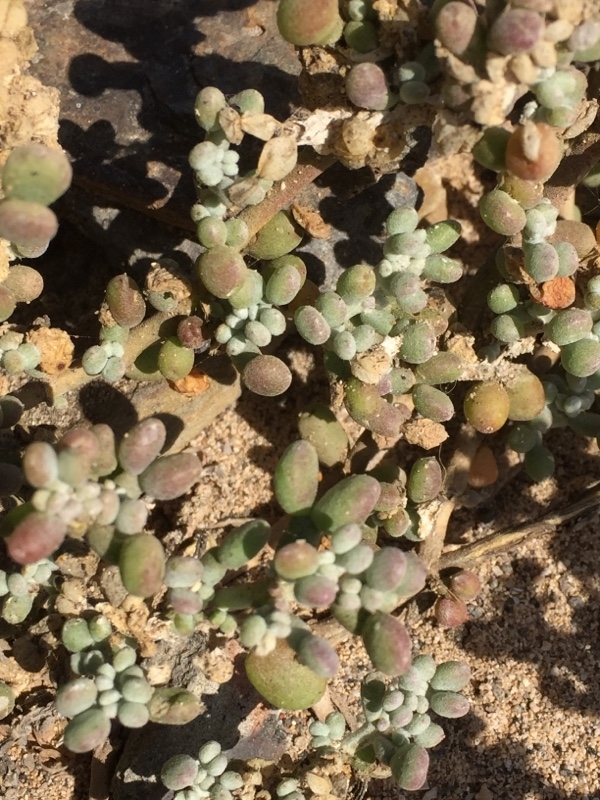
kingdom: Plantae
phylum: Tracheophyta
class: Magnoliopsida
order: Zygophyllales
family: Zygophyllaceae
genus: Tetraena
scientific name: Tetraena fontanesii
